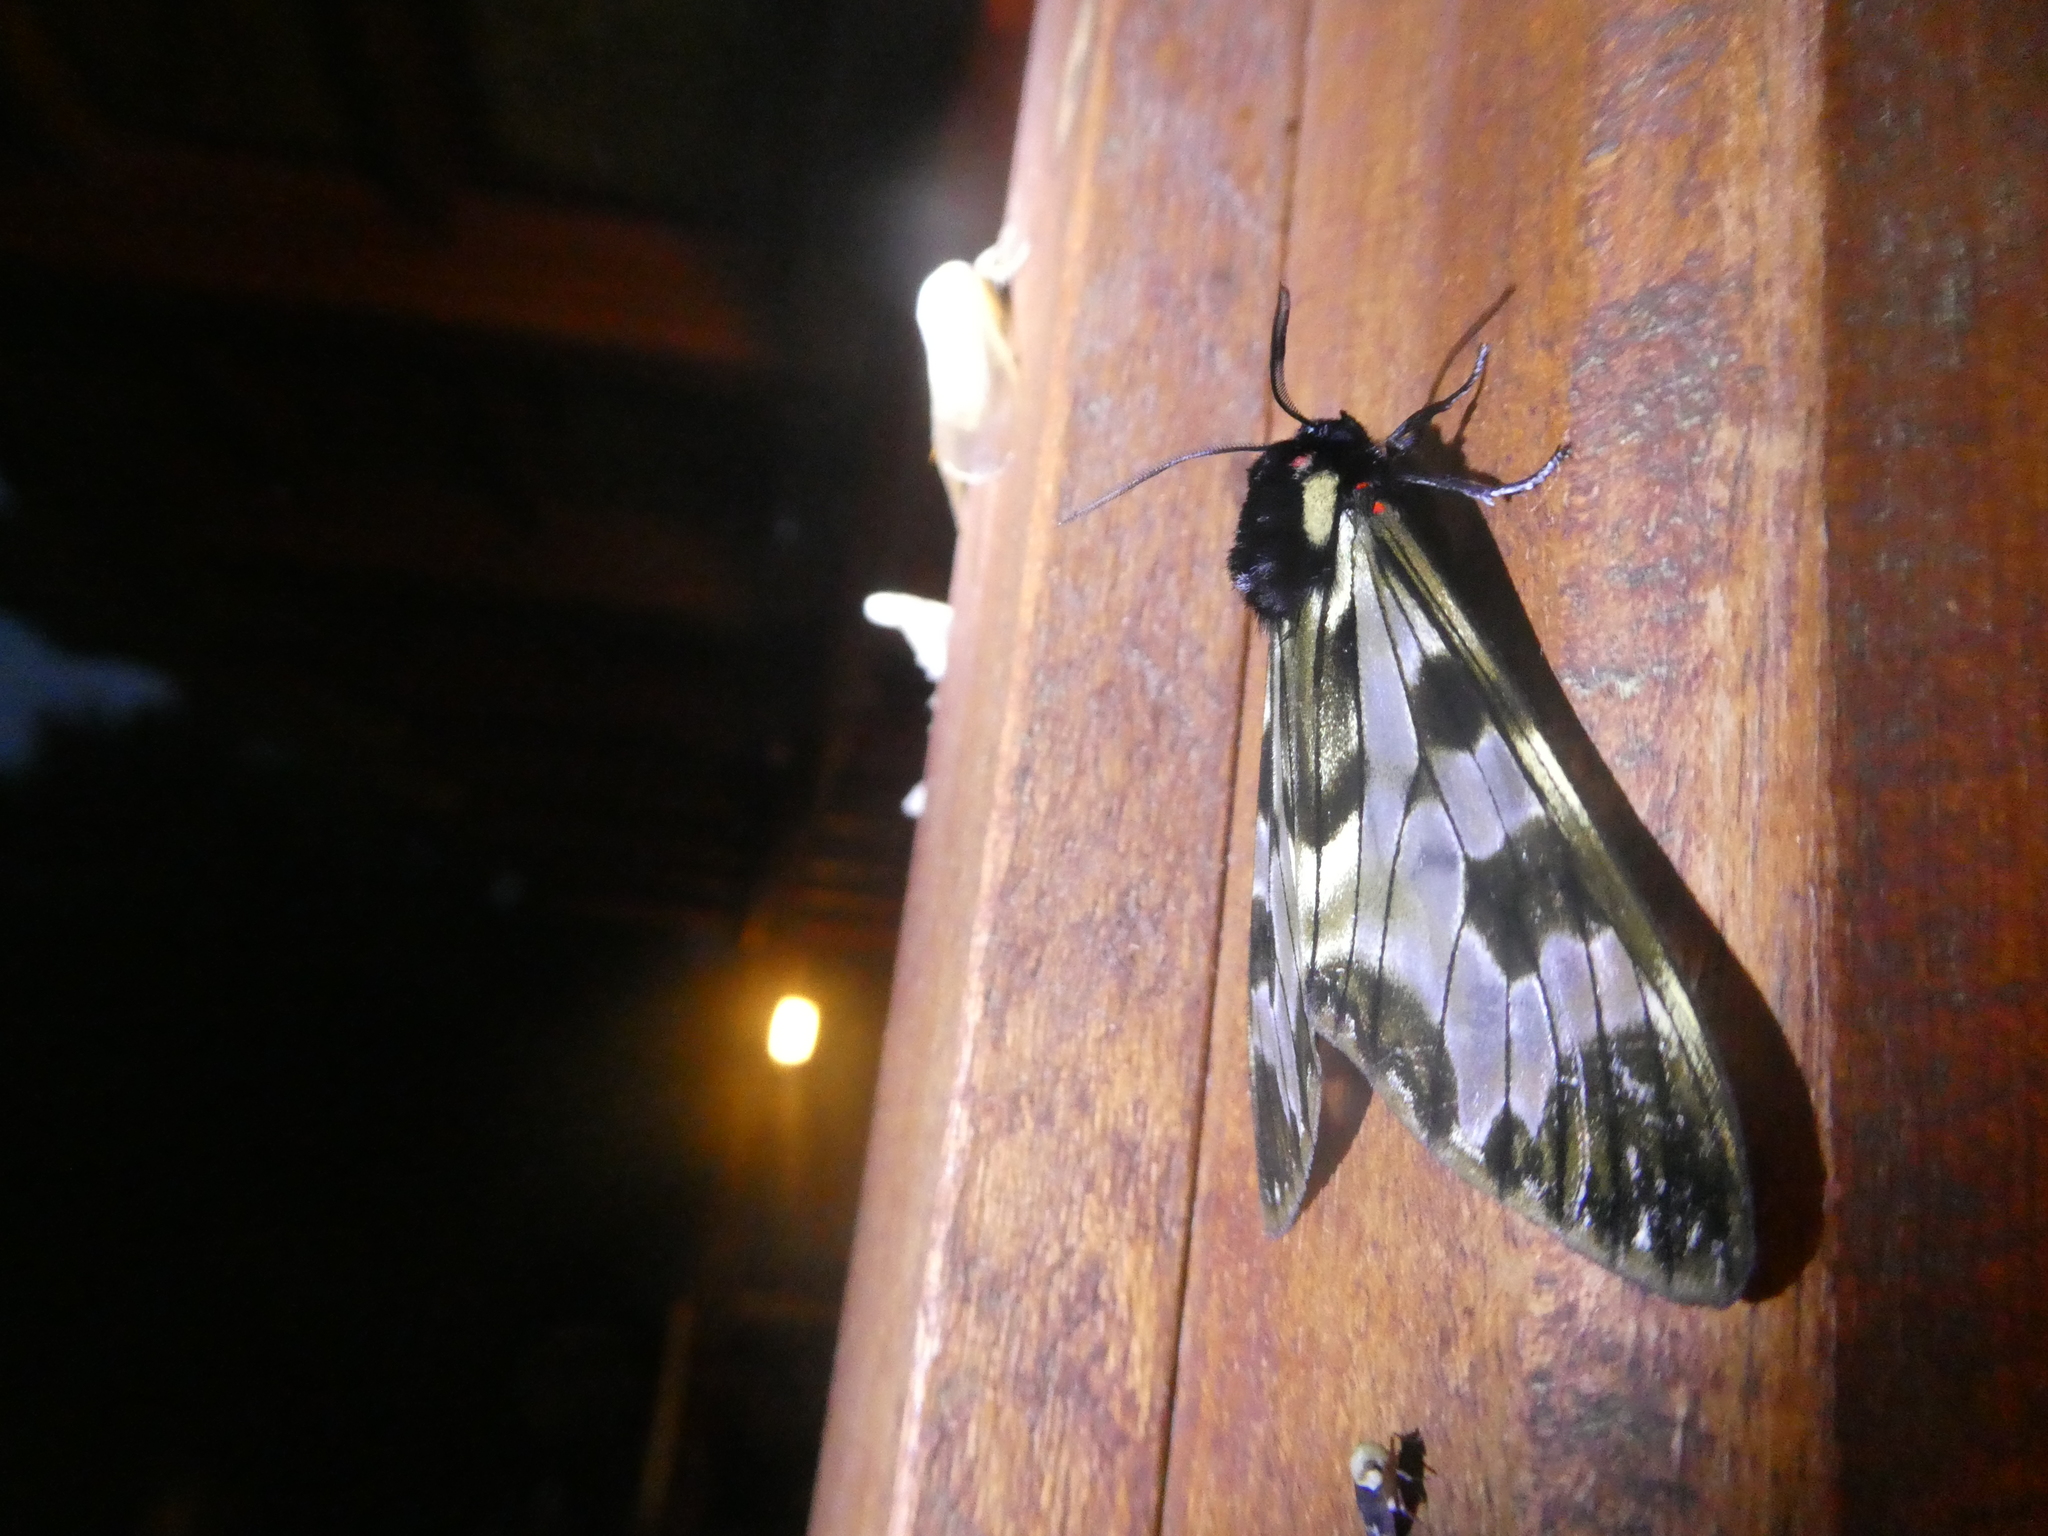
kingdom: Animalia
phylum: Arthropoda
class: Insecta
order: Lepidoptera
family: Erebidae
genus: Dysschema
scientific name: Dysschema palmeri
